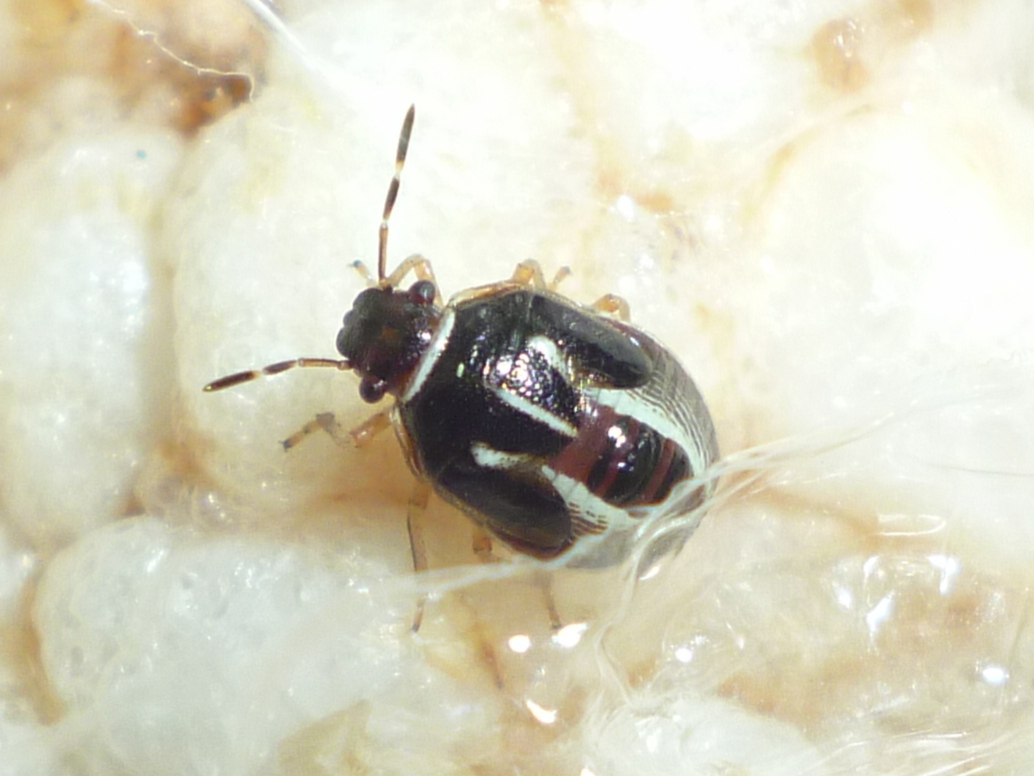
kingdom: Animalia
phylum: Arthropoda
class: Insecta
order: Hemiptera
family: Pentatomidae
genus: Mormidea
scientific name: Mormidea lugens
